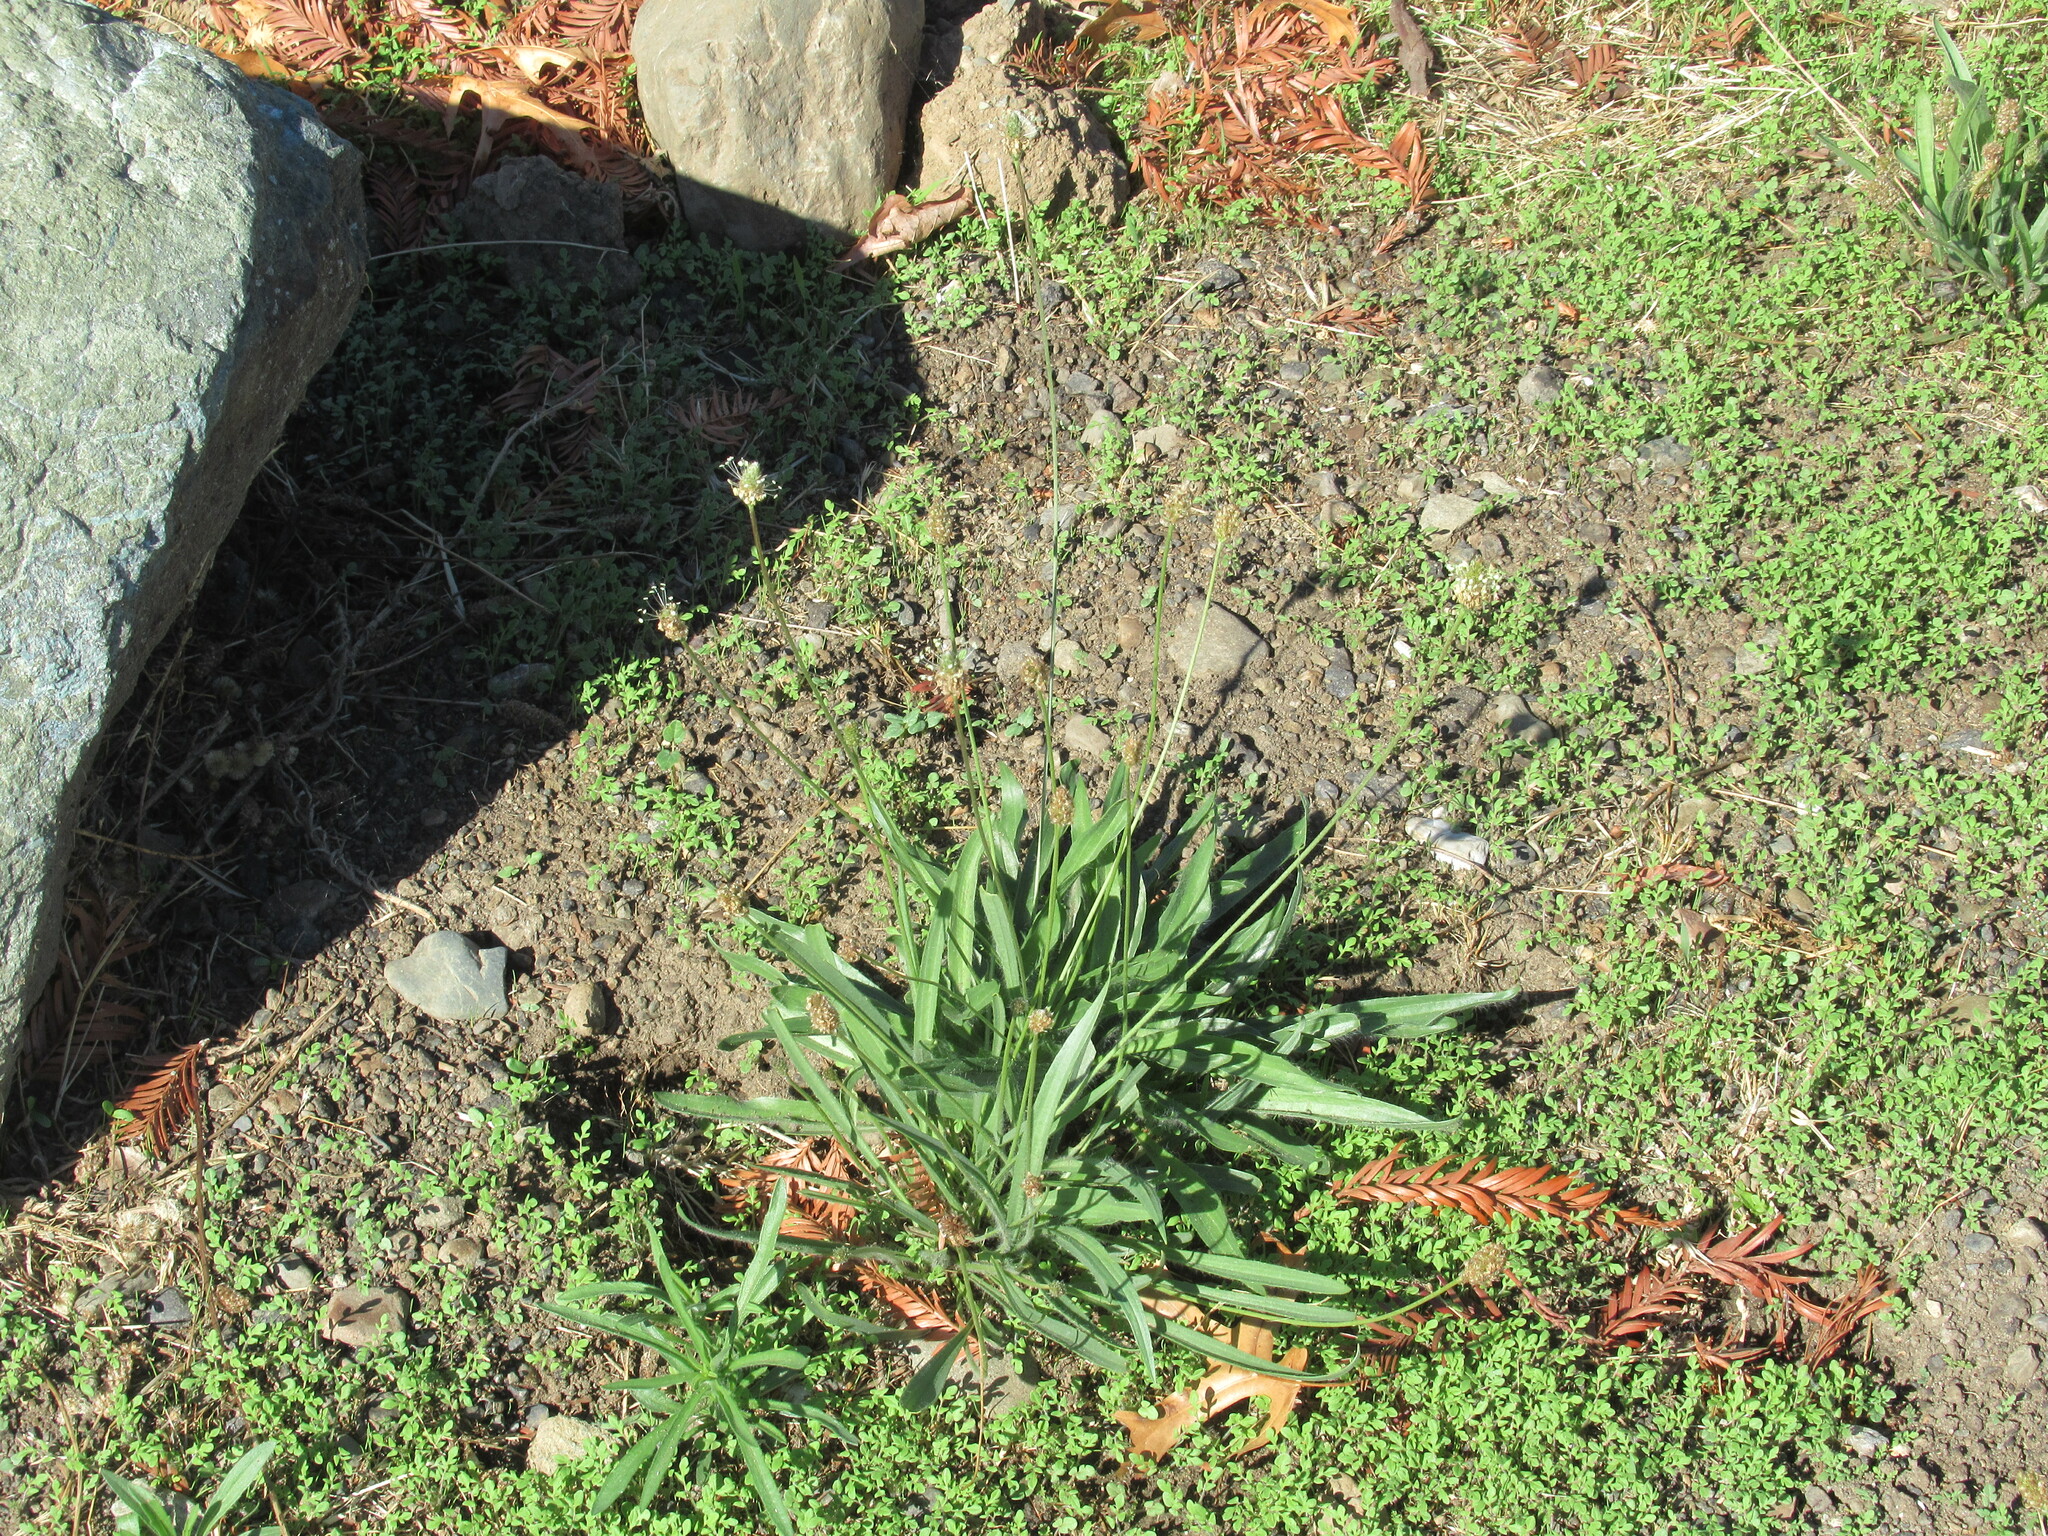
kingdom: Plantae
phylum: Tracheophyta
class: Magnoliopsida
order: Lamiales
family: Plantaginaceae
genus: Plantago
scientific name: Plantago lanceolata
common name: Ribwort plantain
